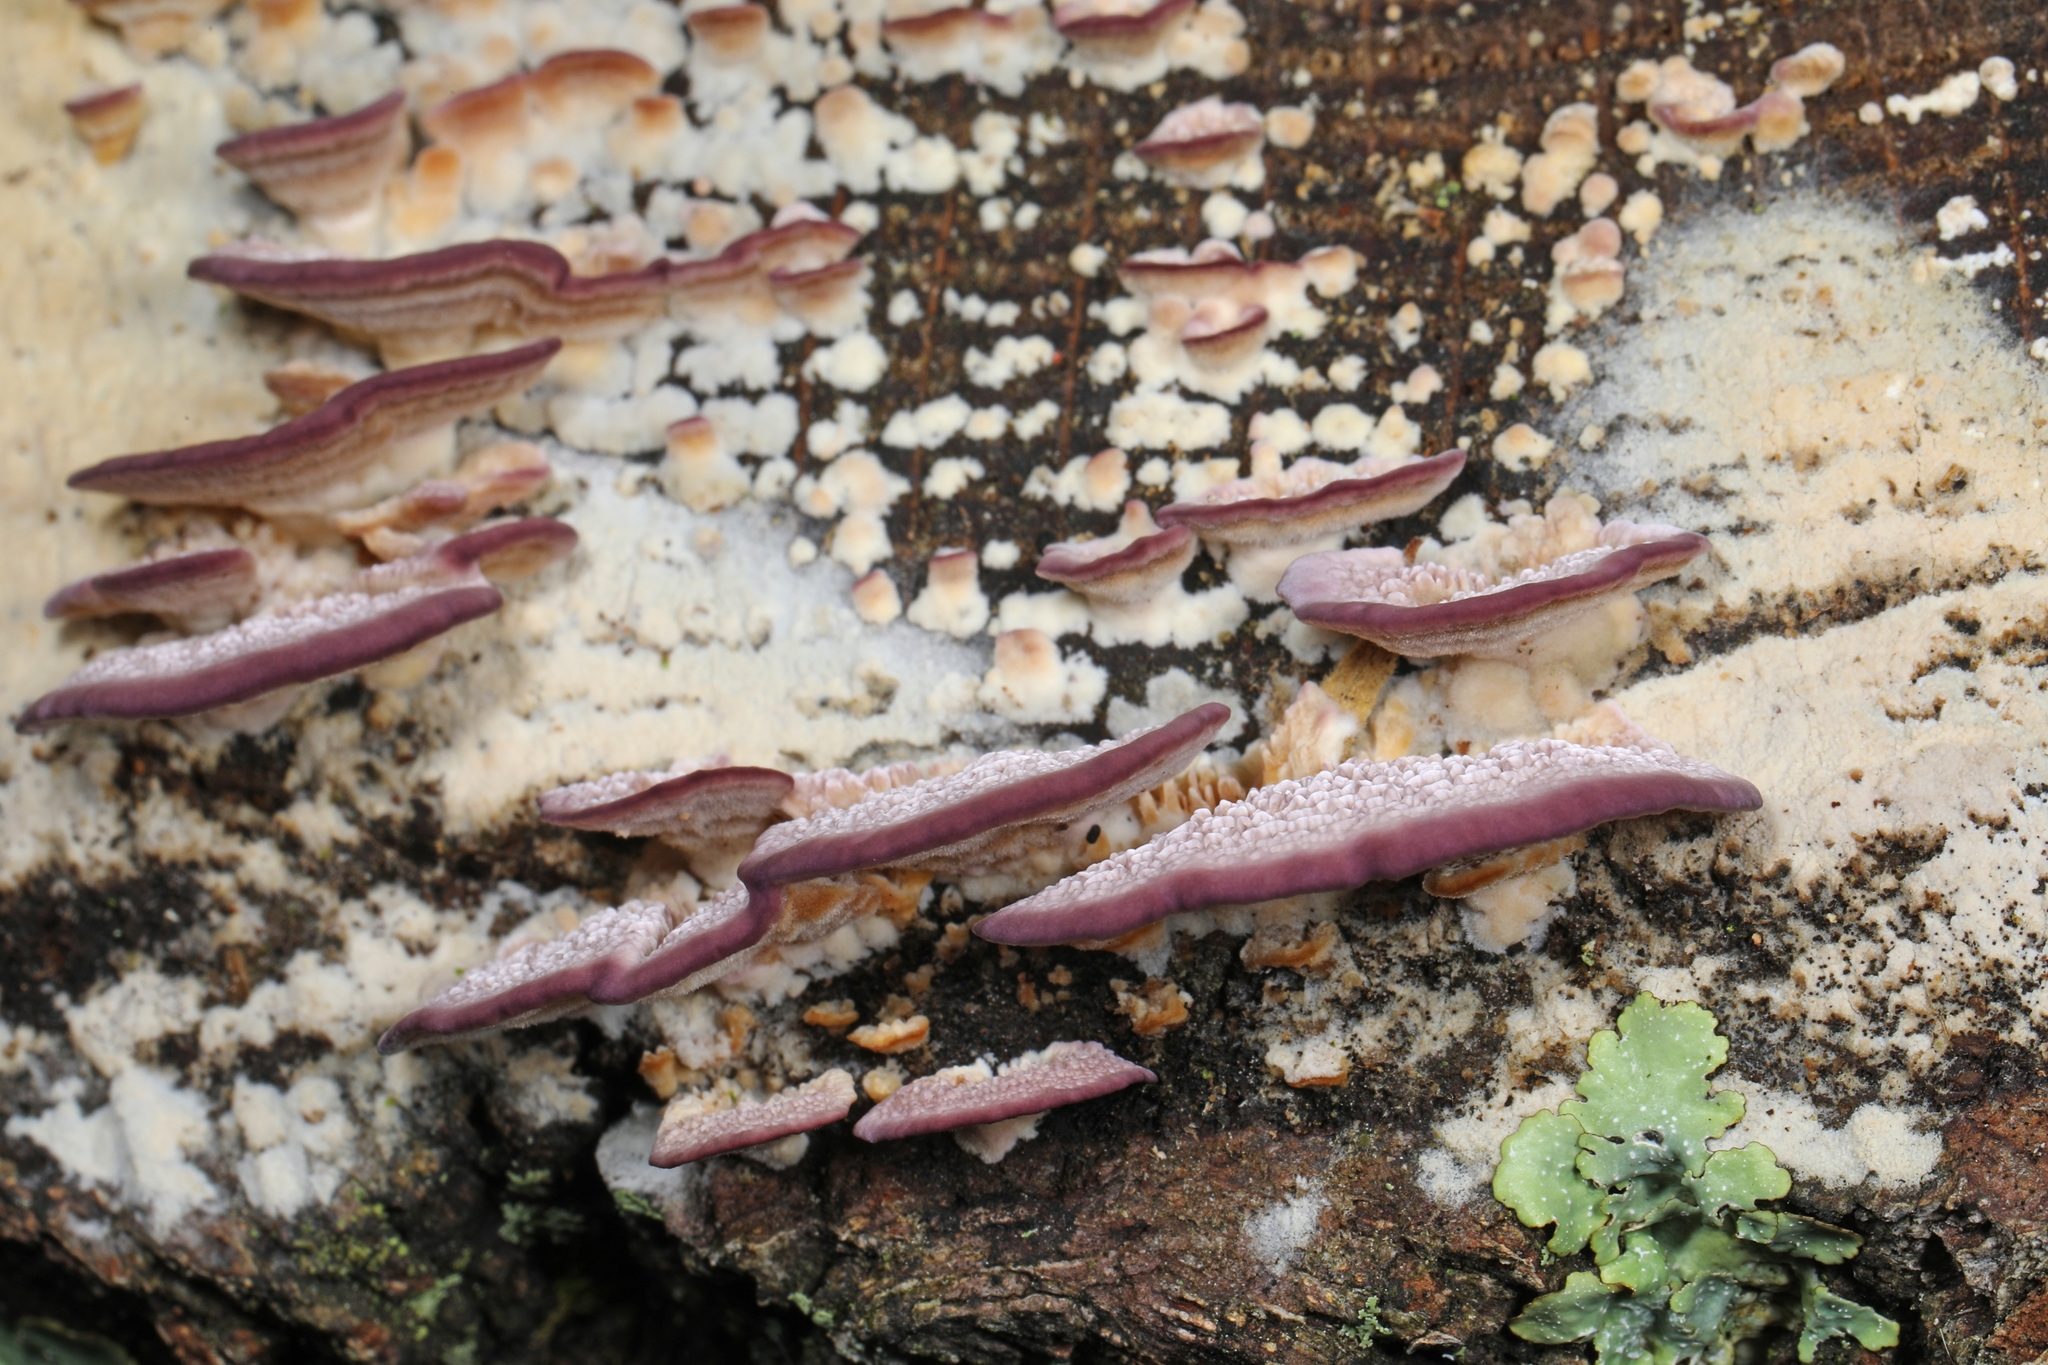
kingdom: Fungi
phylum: Basidiomycota
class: Agaricomycetes
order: Hymenochaetales
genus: Trichaptum
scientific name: Trichaptum abietinum
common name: Purplepore bracket
